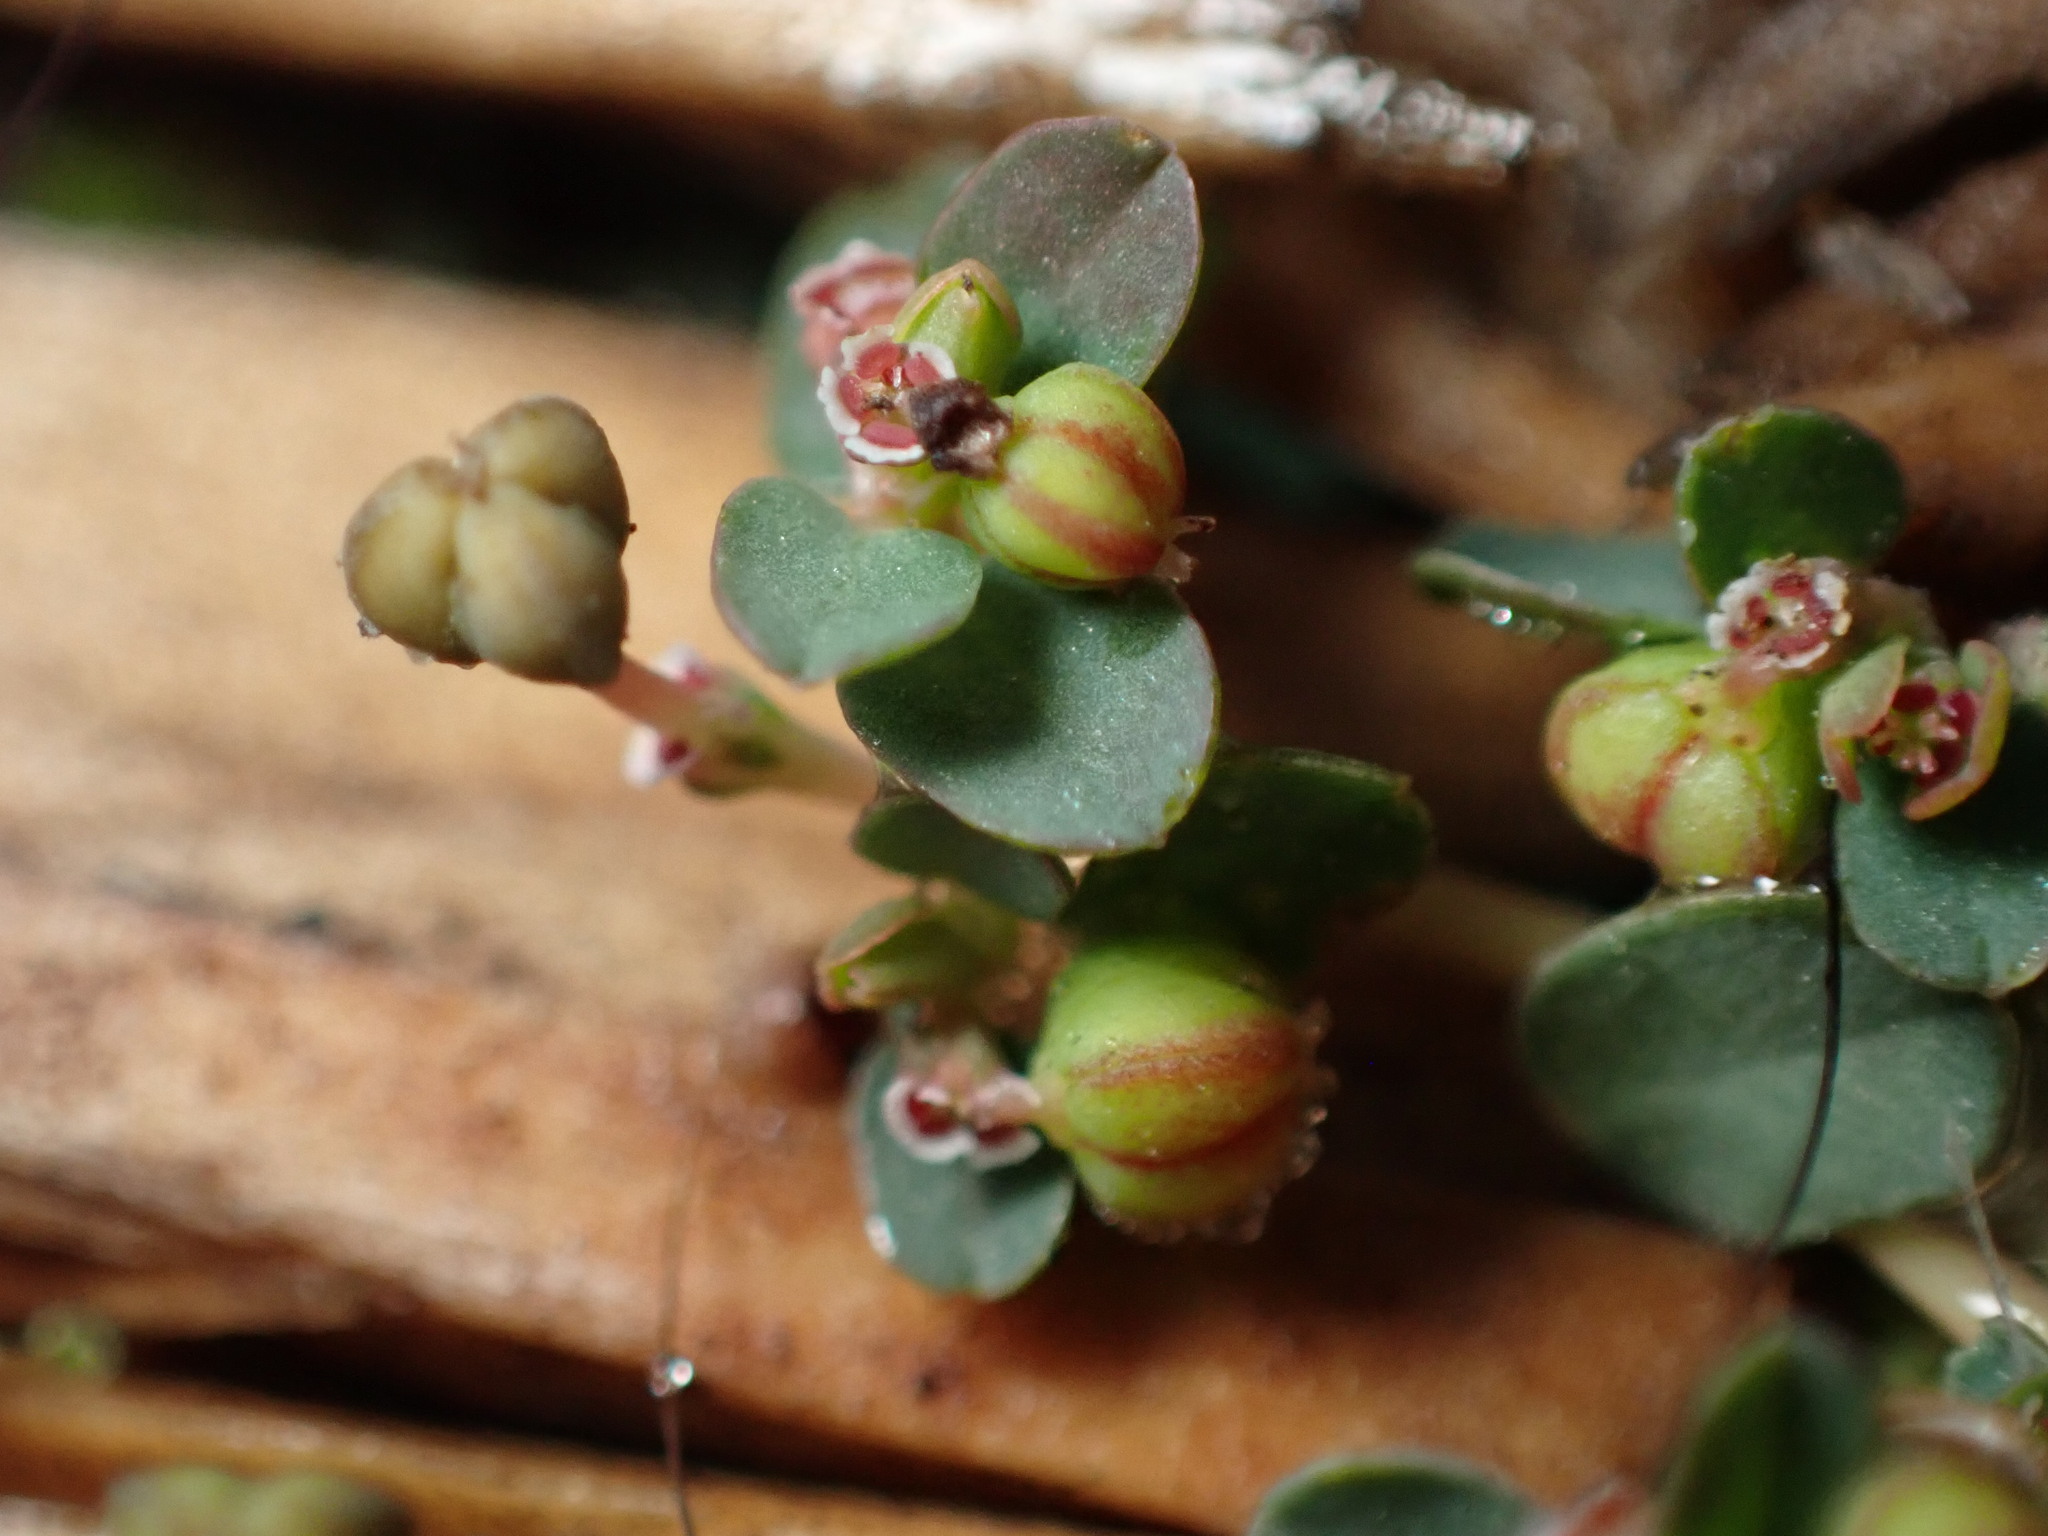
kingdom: Plantae
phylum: Tracheophyta
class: Magnoliopsida
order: Malpighiales
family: Euphorbiaceae
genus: Euphorbia
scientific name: Euphorbia serpens
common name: Matted sandmat
